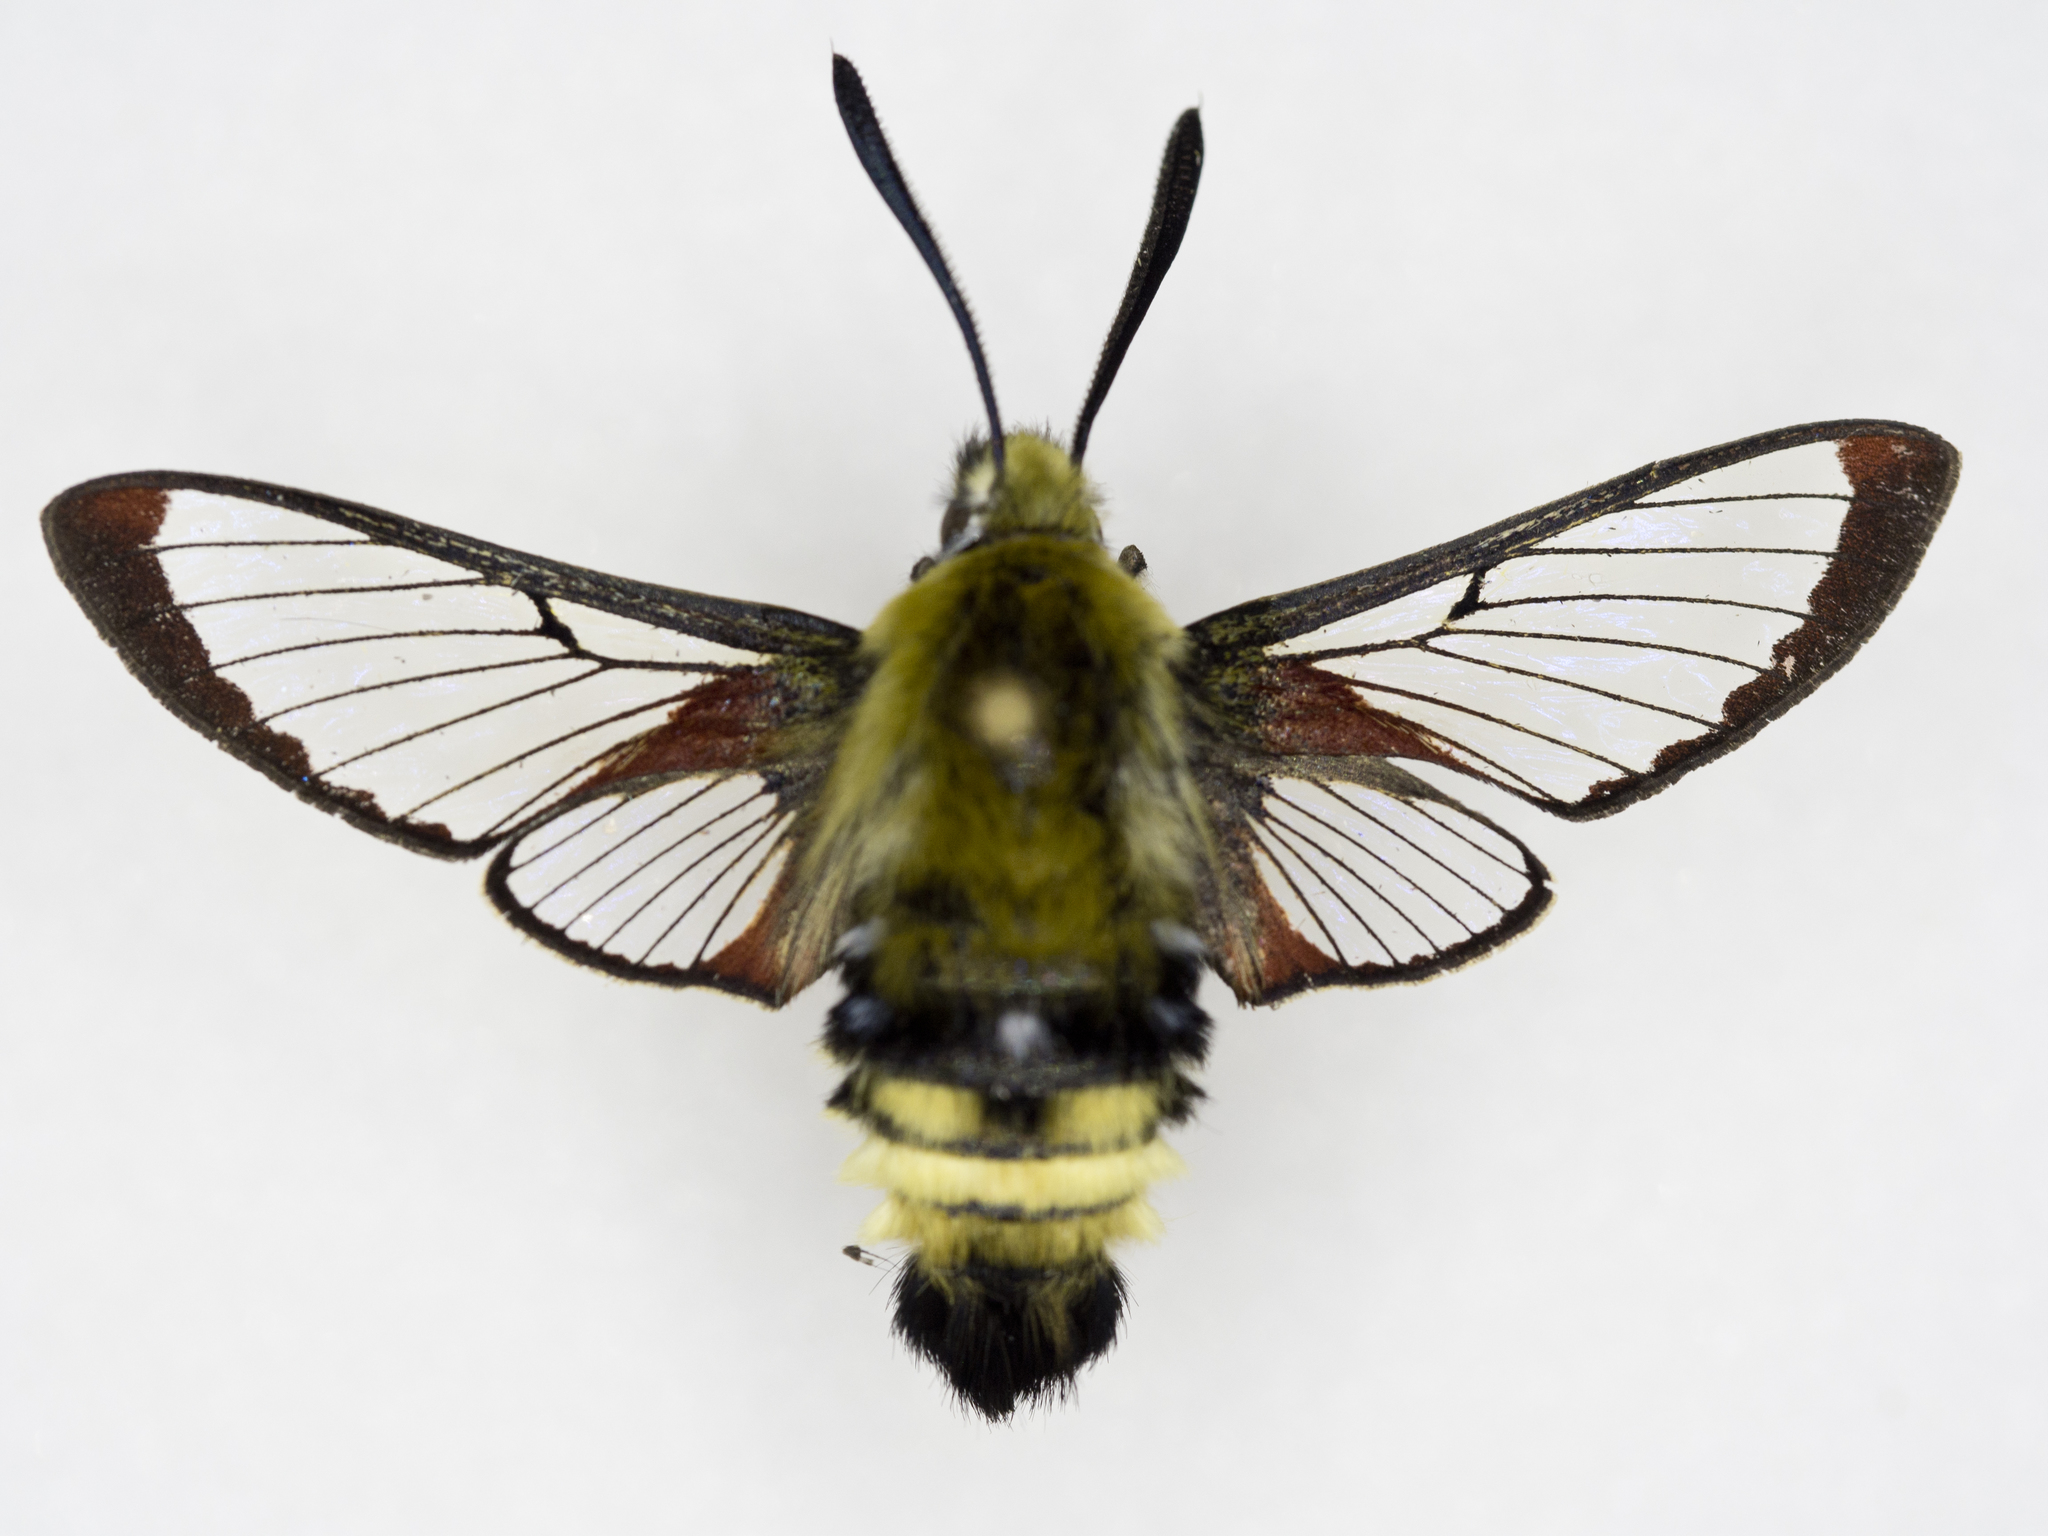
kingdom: Animalia
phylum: Arthropoda
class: Insecta
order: Lepidoptera
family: Sphingidae
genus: Hemaris
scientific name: Hemaris thetis
